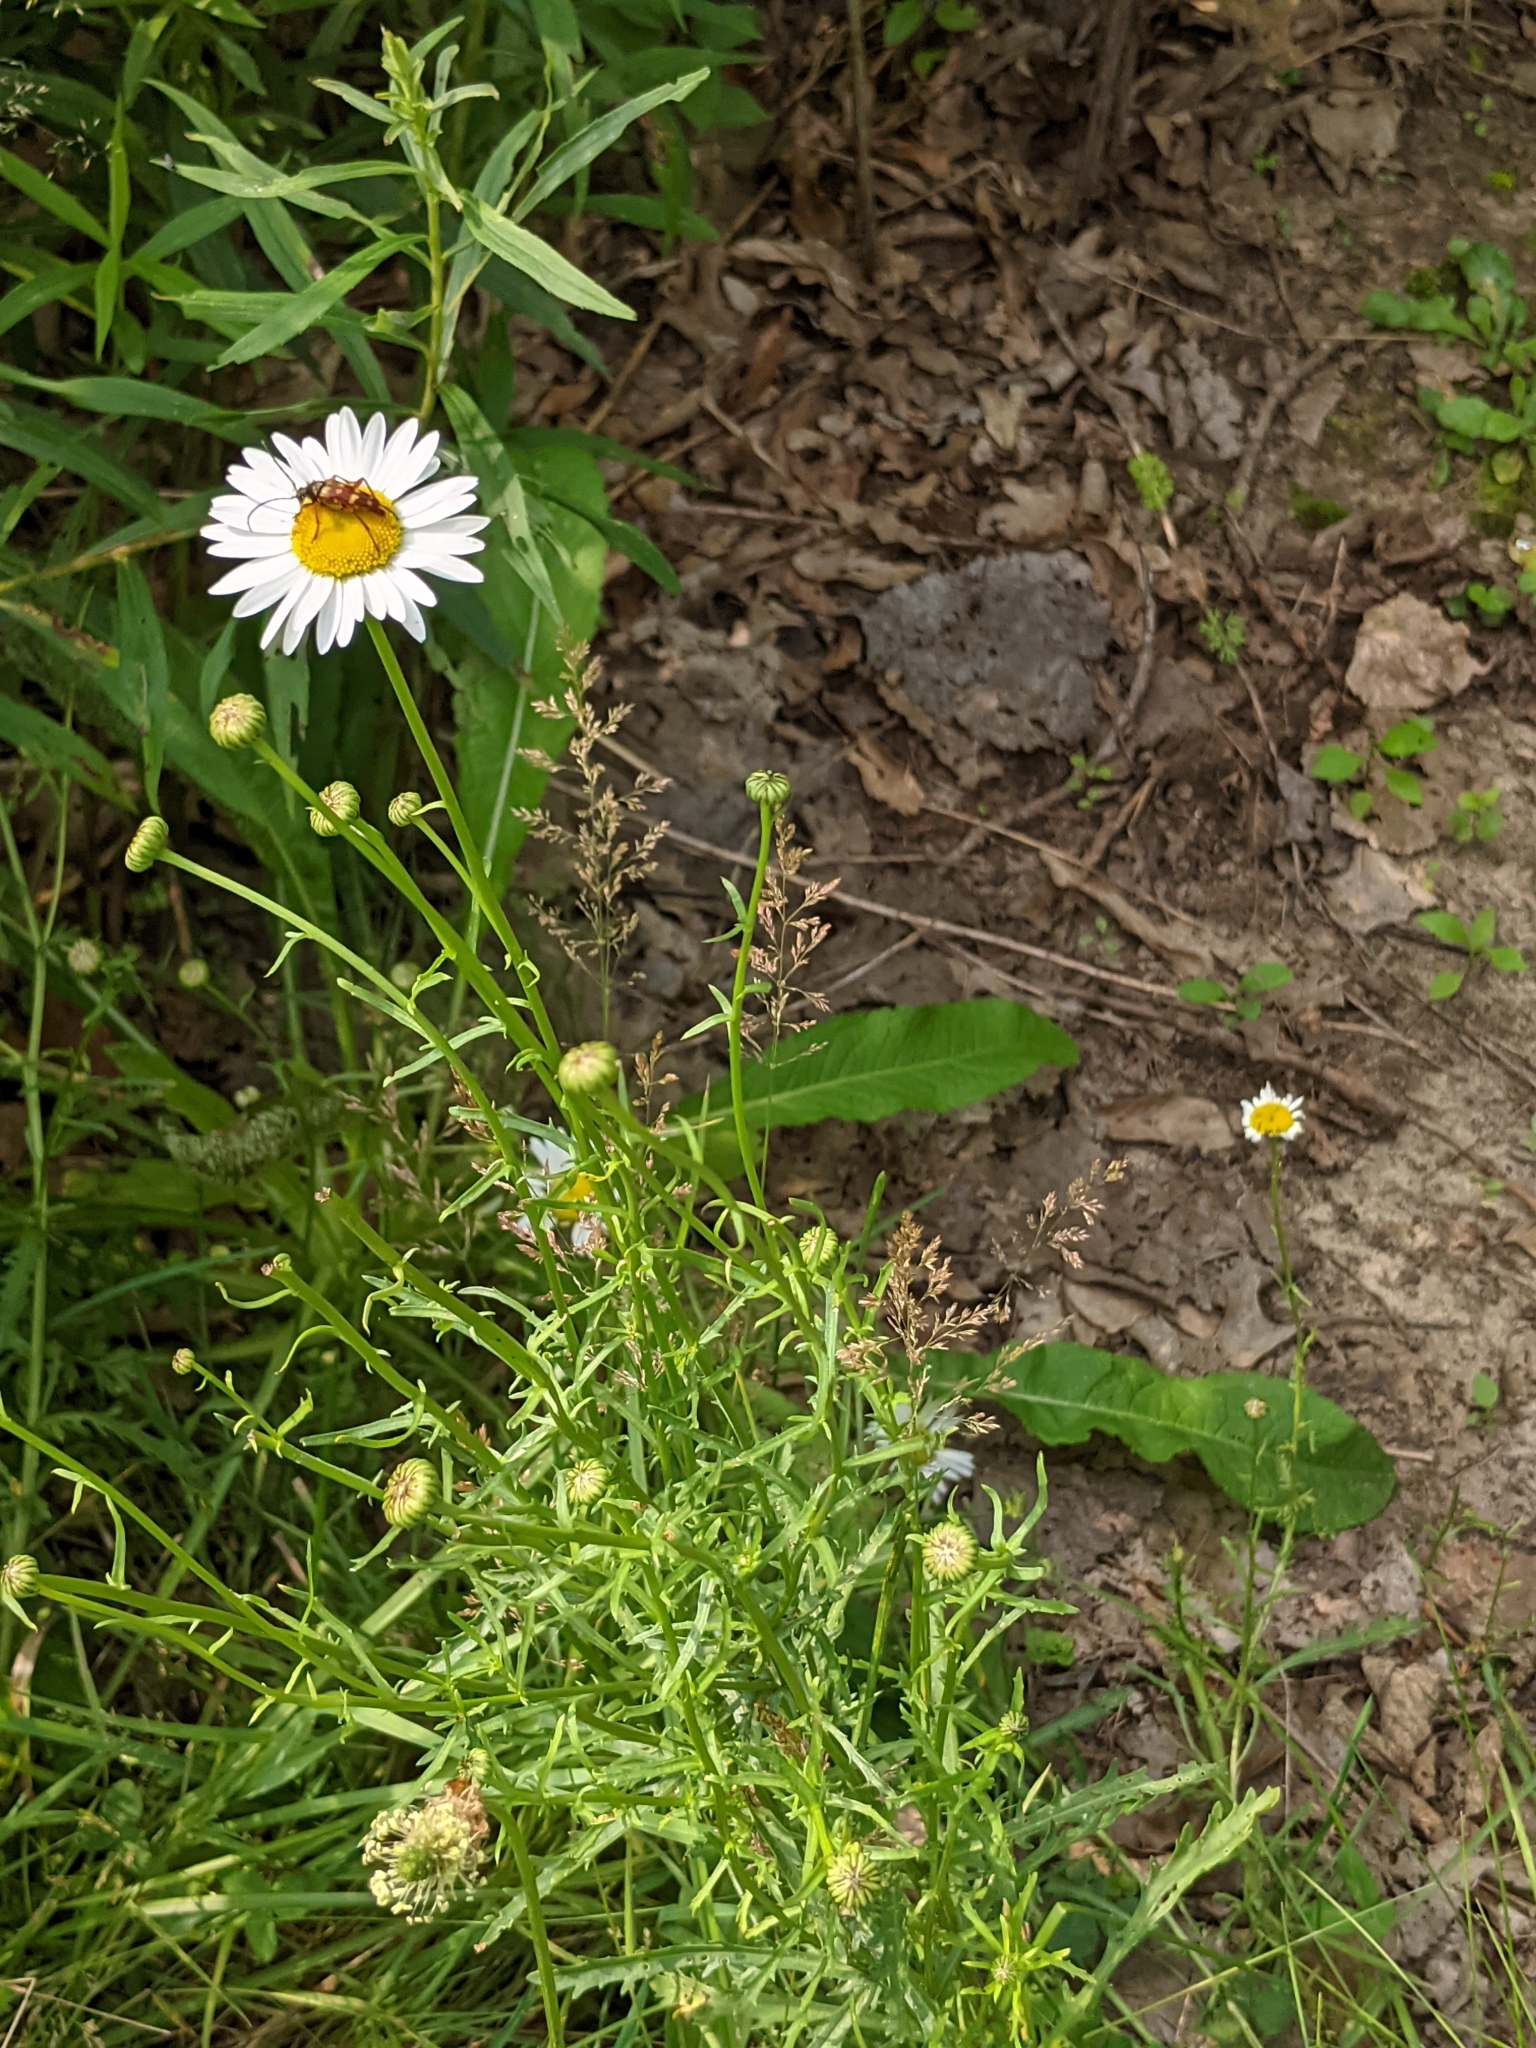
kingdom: Plantae
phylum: Tracheophyta
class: Magnoliopsida
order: Asterales
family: Asteraceae
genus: Leucanthemum
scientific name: Leucanthemum vulgare
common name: Oxeye daisy
